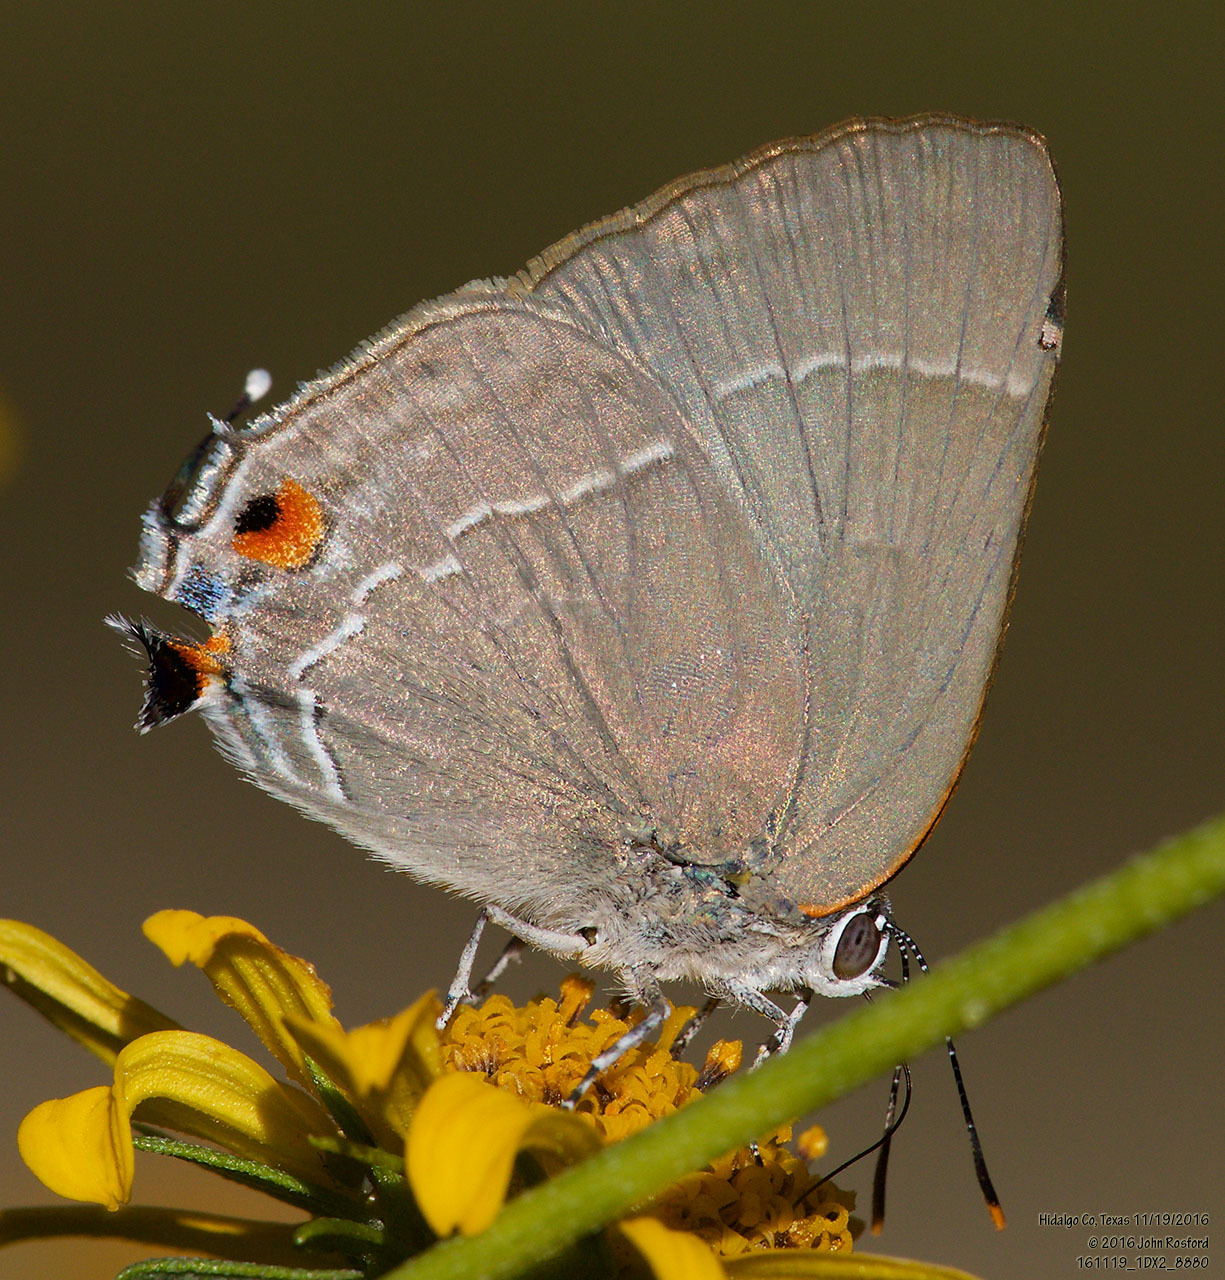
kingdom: Animalia
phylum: Arthropoda
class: Insecta
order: Lepidoptera
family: Lycaenidae
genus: Thecla
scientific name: Thecla marius
